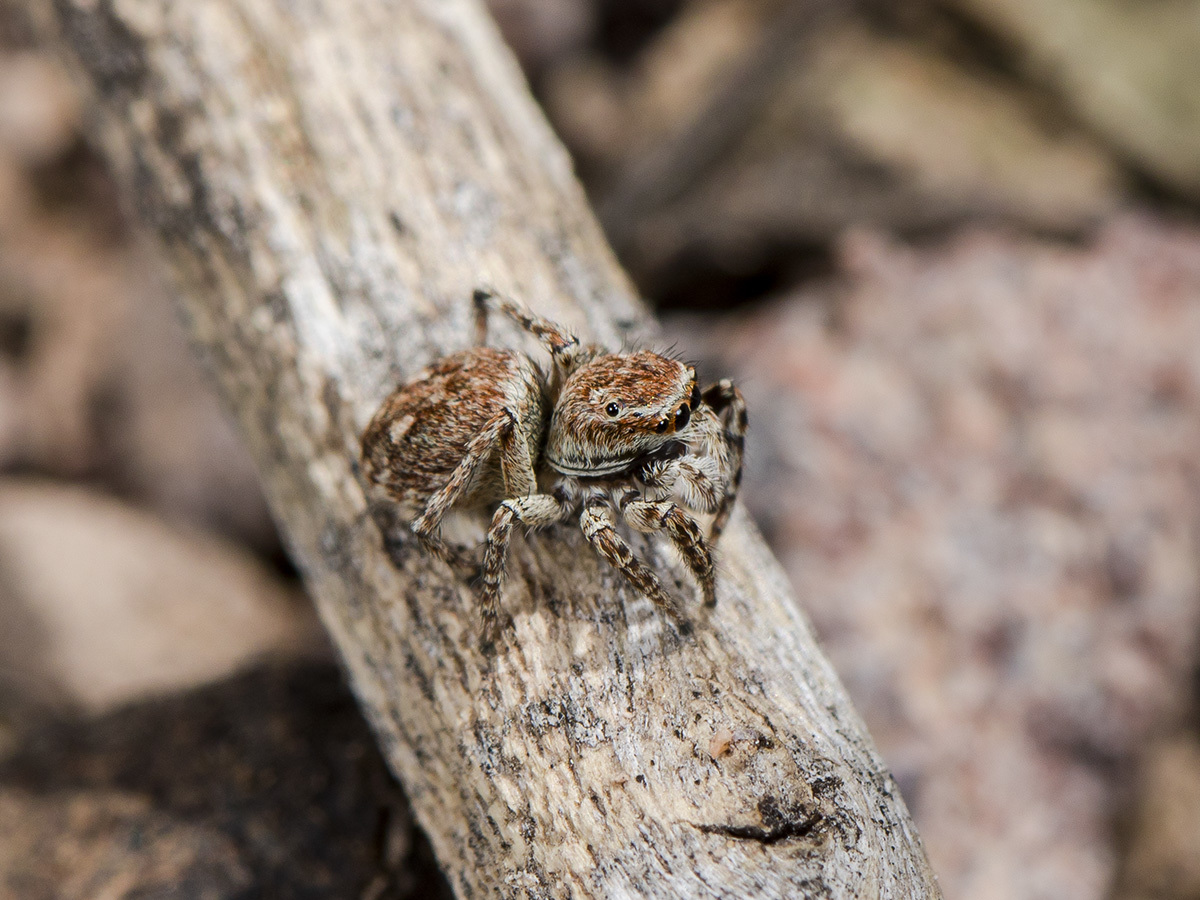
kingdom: Animalia
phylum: Arthropoda
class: Arachnida
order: Araneae
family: Salticidae
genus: Attulus
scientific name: Attulus mirandus
